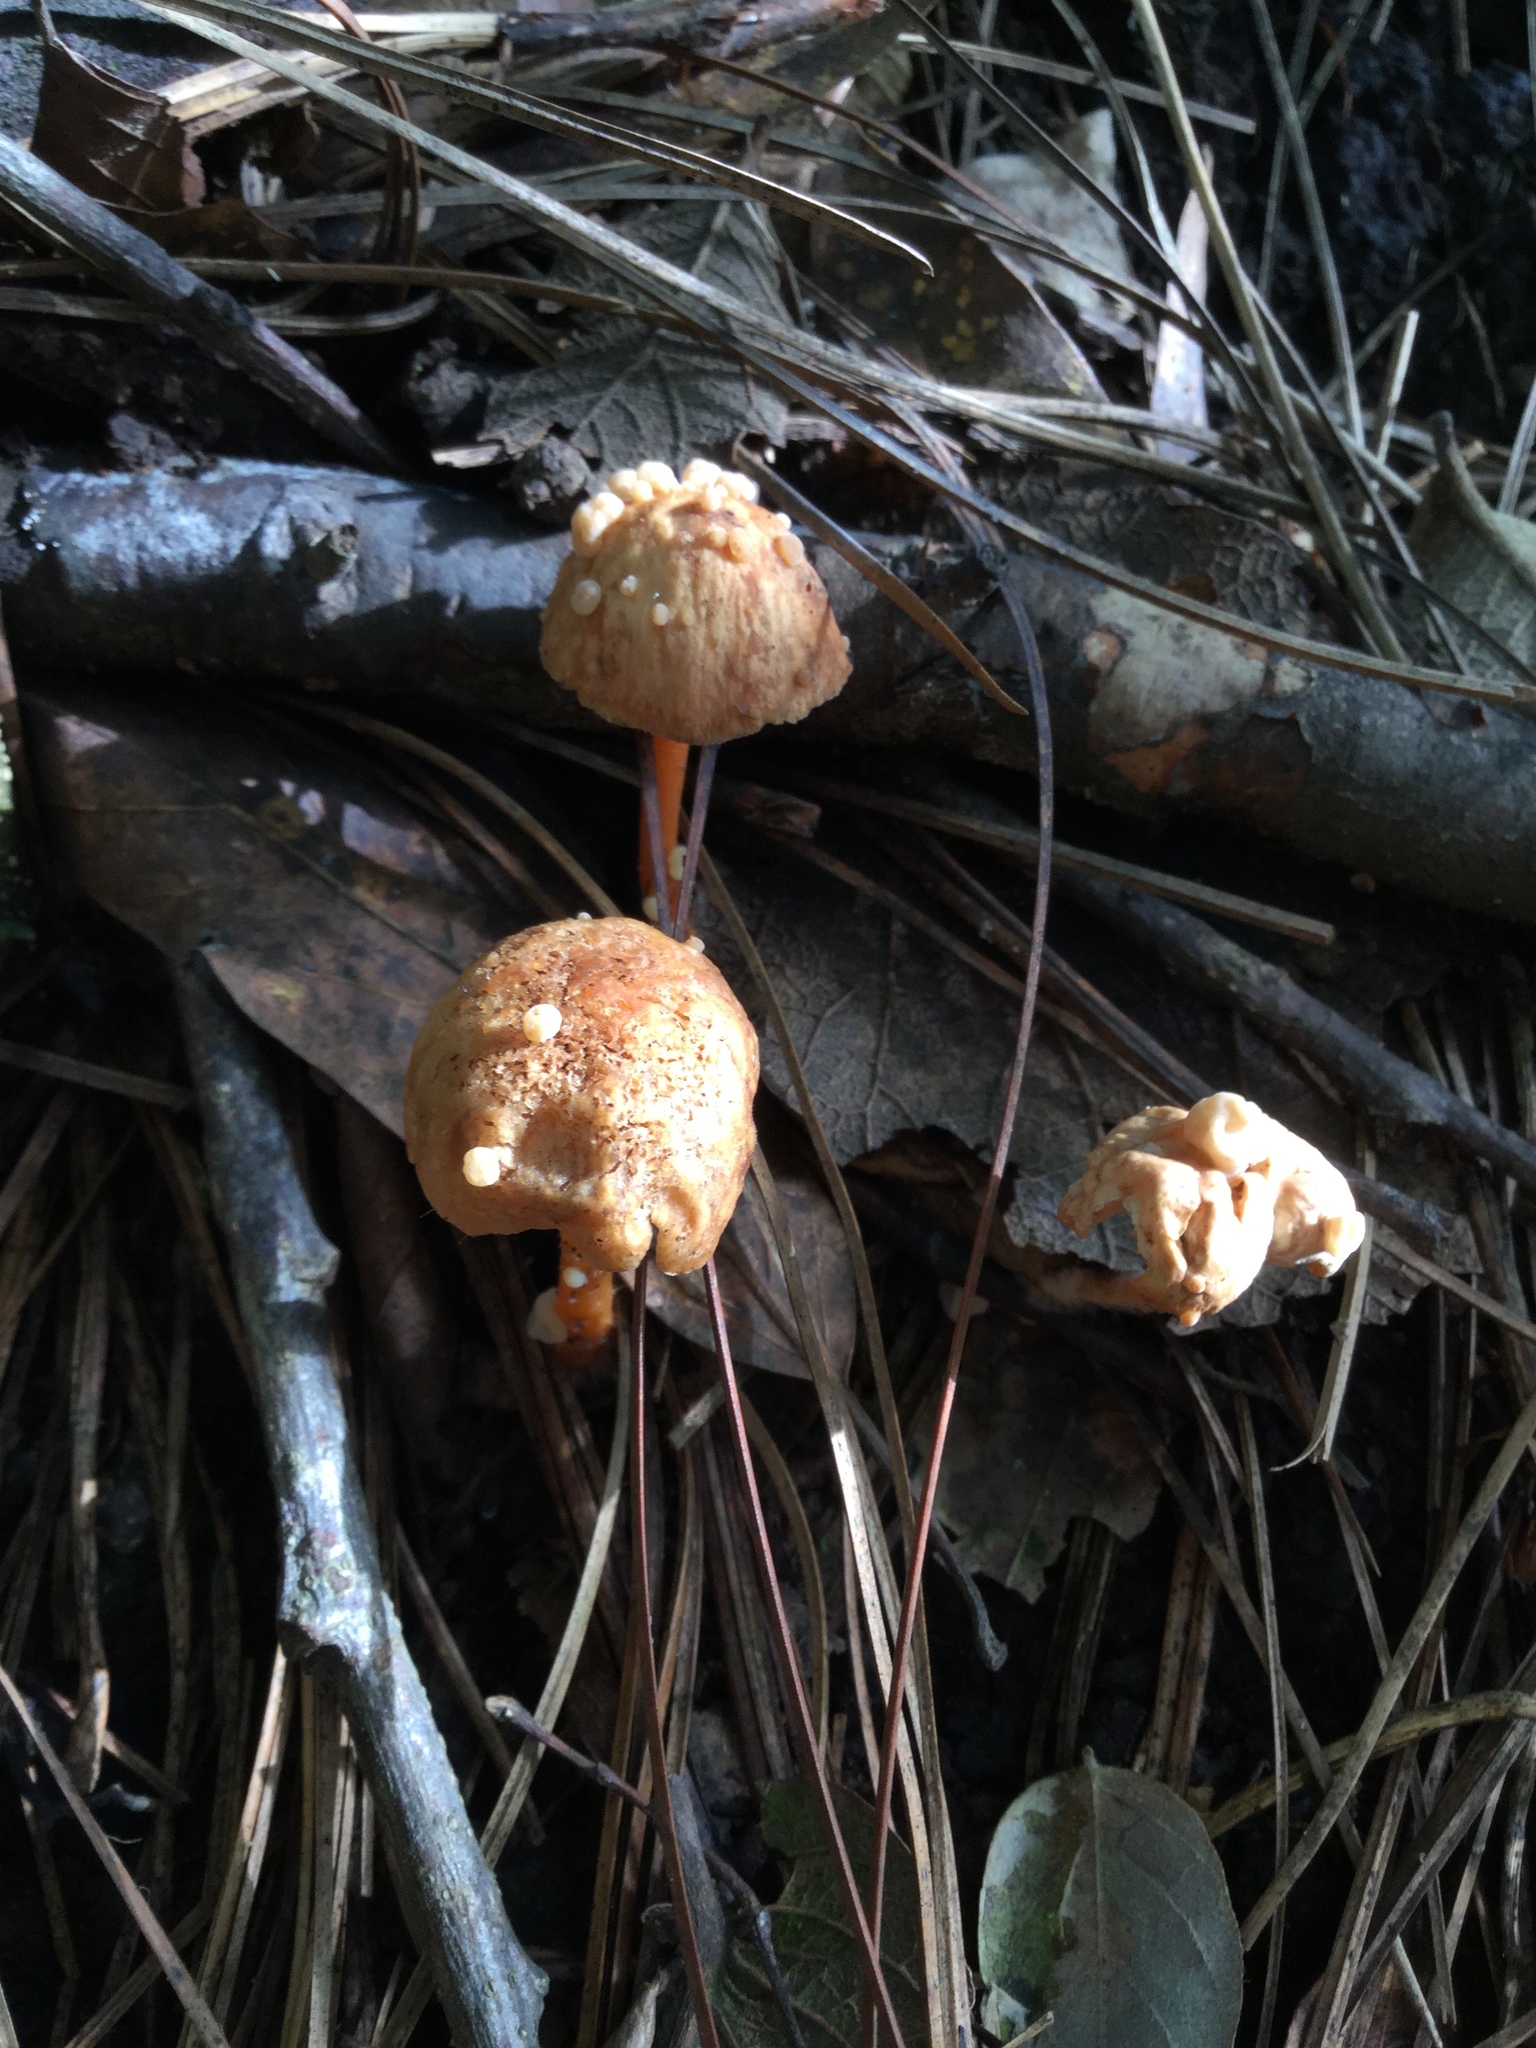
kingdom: Fungi
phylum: Basidiomycota
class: Tremellomycetes
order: Filobasidiales
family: Filobasidiaceae
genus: Syzygospora
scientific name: Syzygospora mycetophila
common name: Collybia clouds
